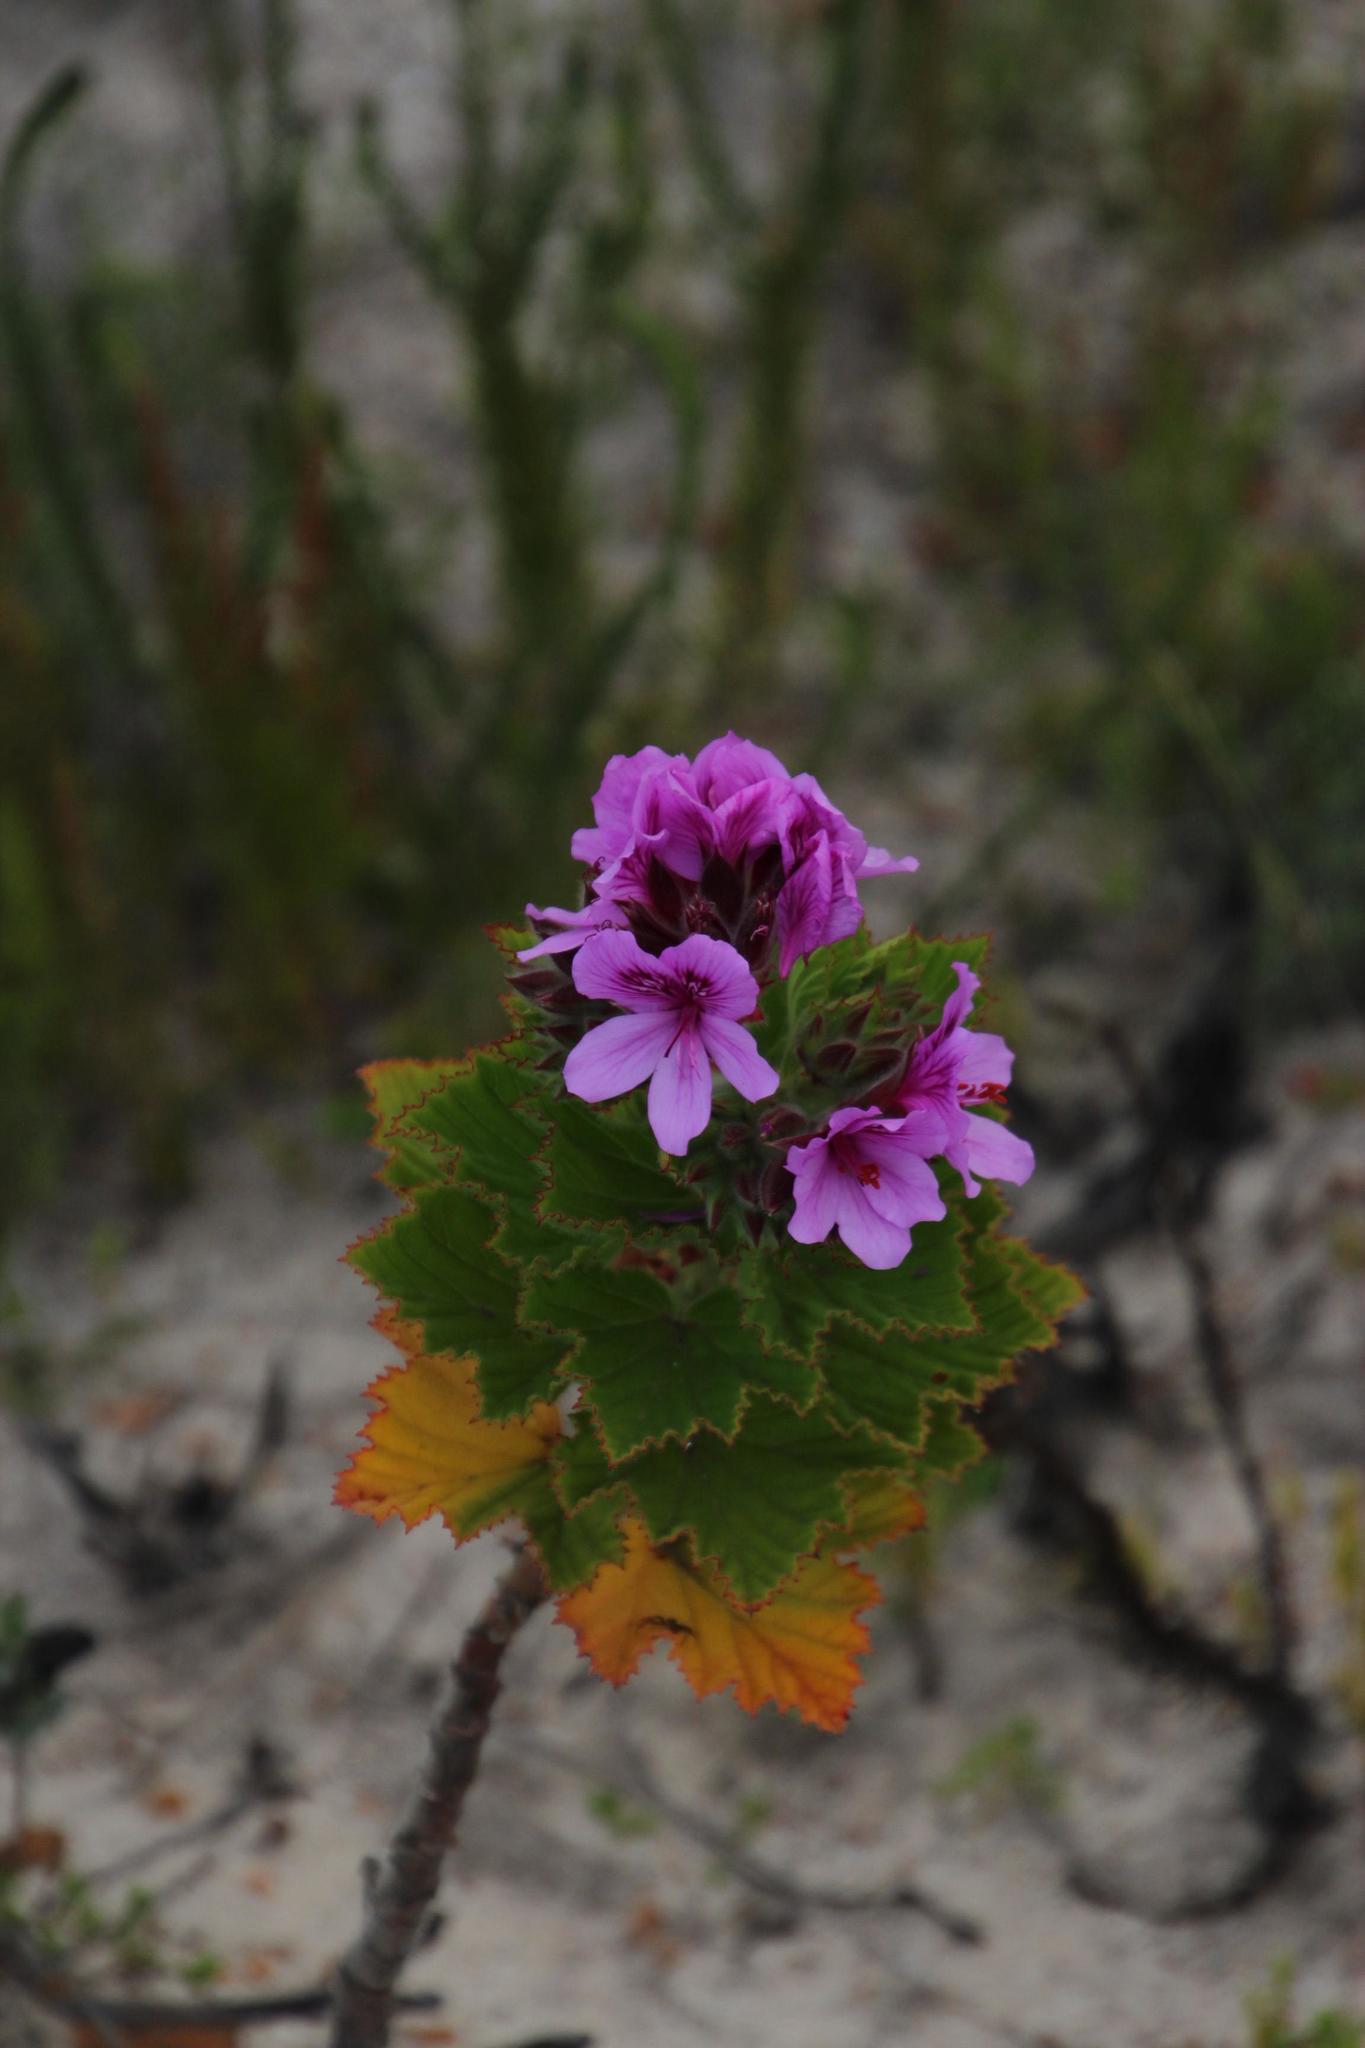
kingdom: Plantae
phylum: Tracheophyta
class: Magnoliopsida
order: Geraniales
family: Geraniaceae
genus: Pelargonium
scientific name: Pelargonium cucullatum
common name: Tree pelargonium
